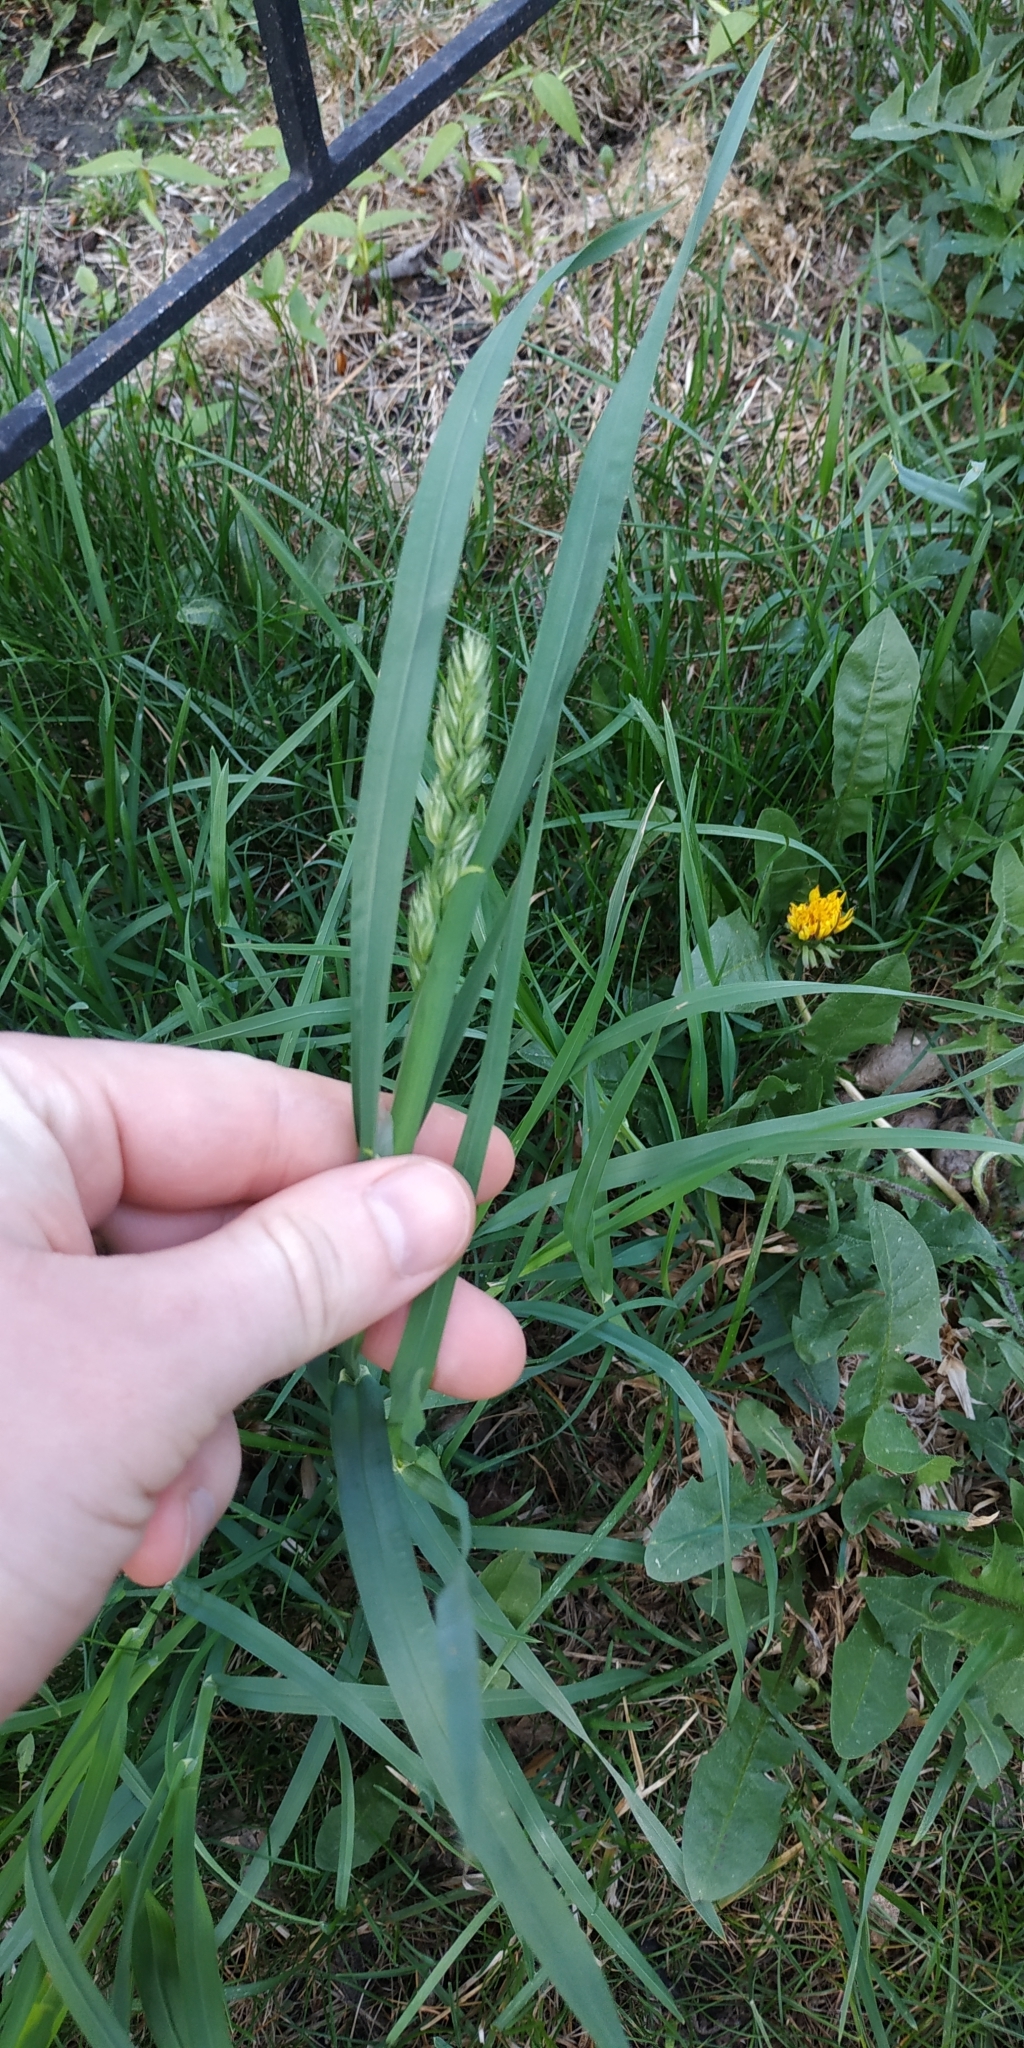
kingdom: Plantae
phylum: Tracheophyta
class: Liliopsida
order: Poales
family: Poaceae
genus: Dactylis
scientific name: Dactylis glomerata
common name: Orchardgrass
